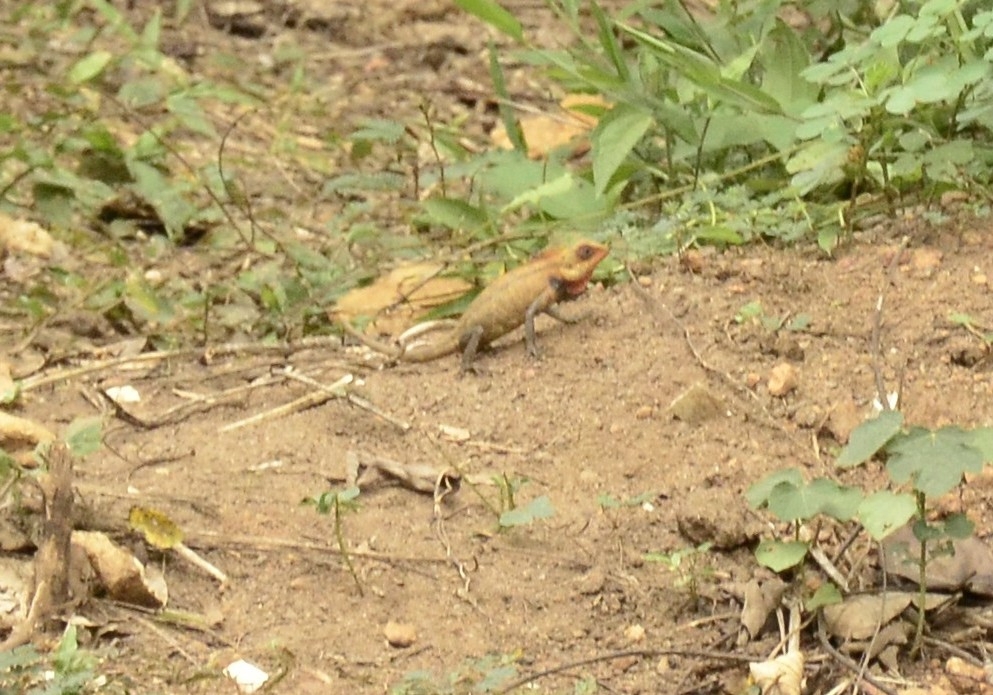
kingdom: Animalia
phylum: Chordata
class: Squamata
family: Agamidae
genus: Calotes
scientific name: Calotes versicolor
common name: Oriental garden lizard
